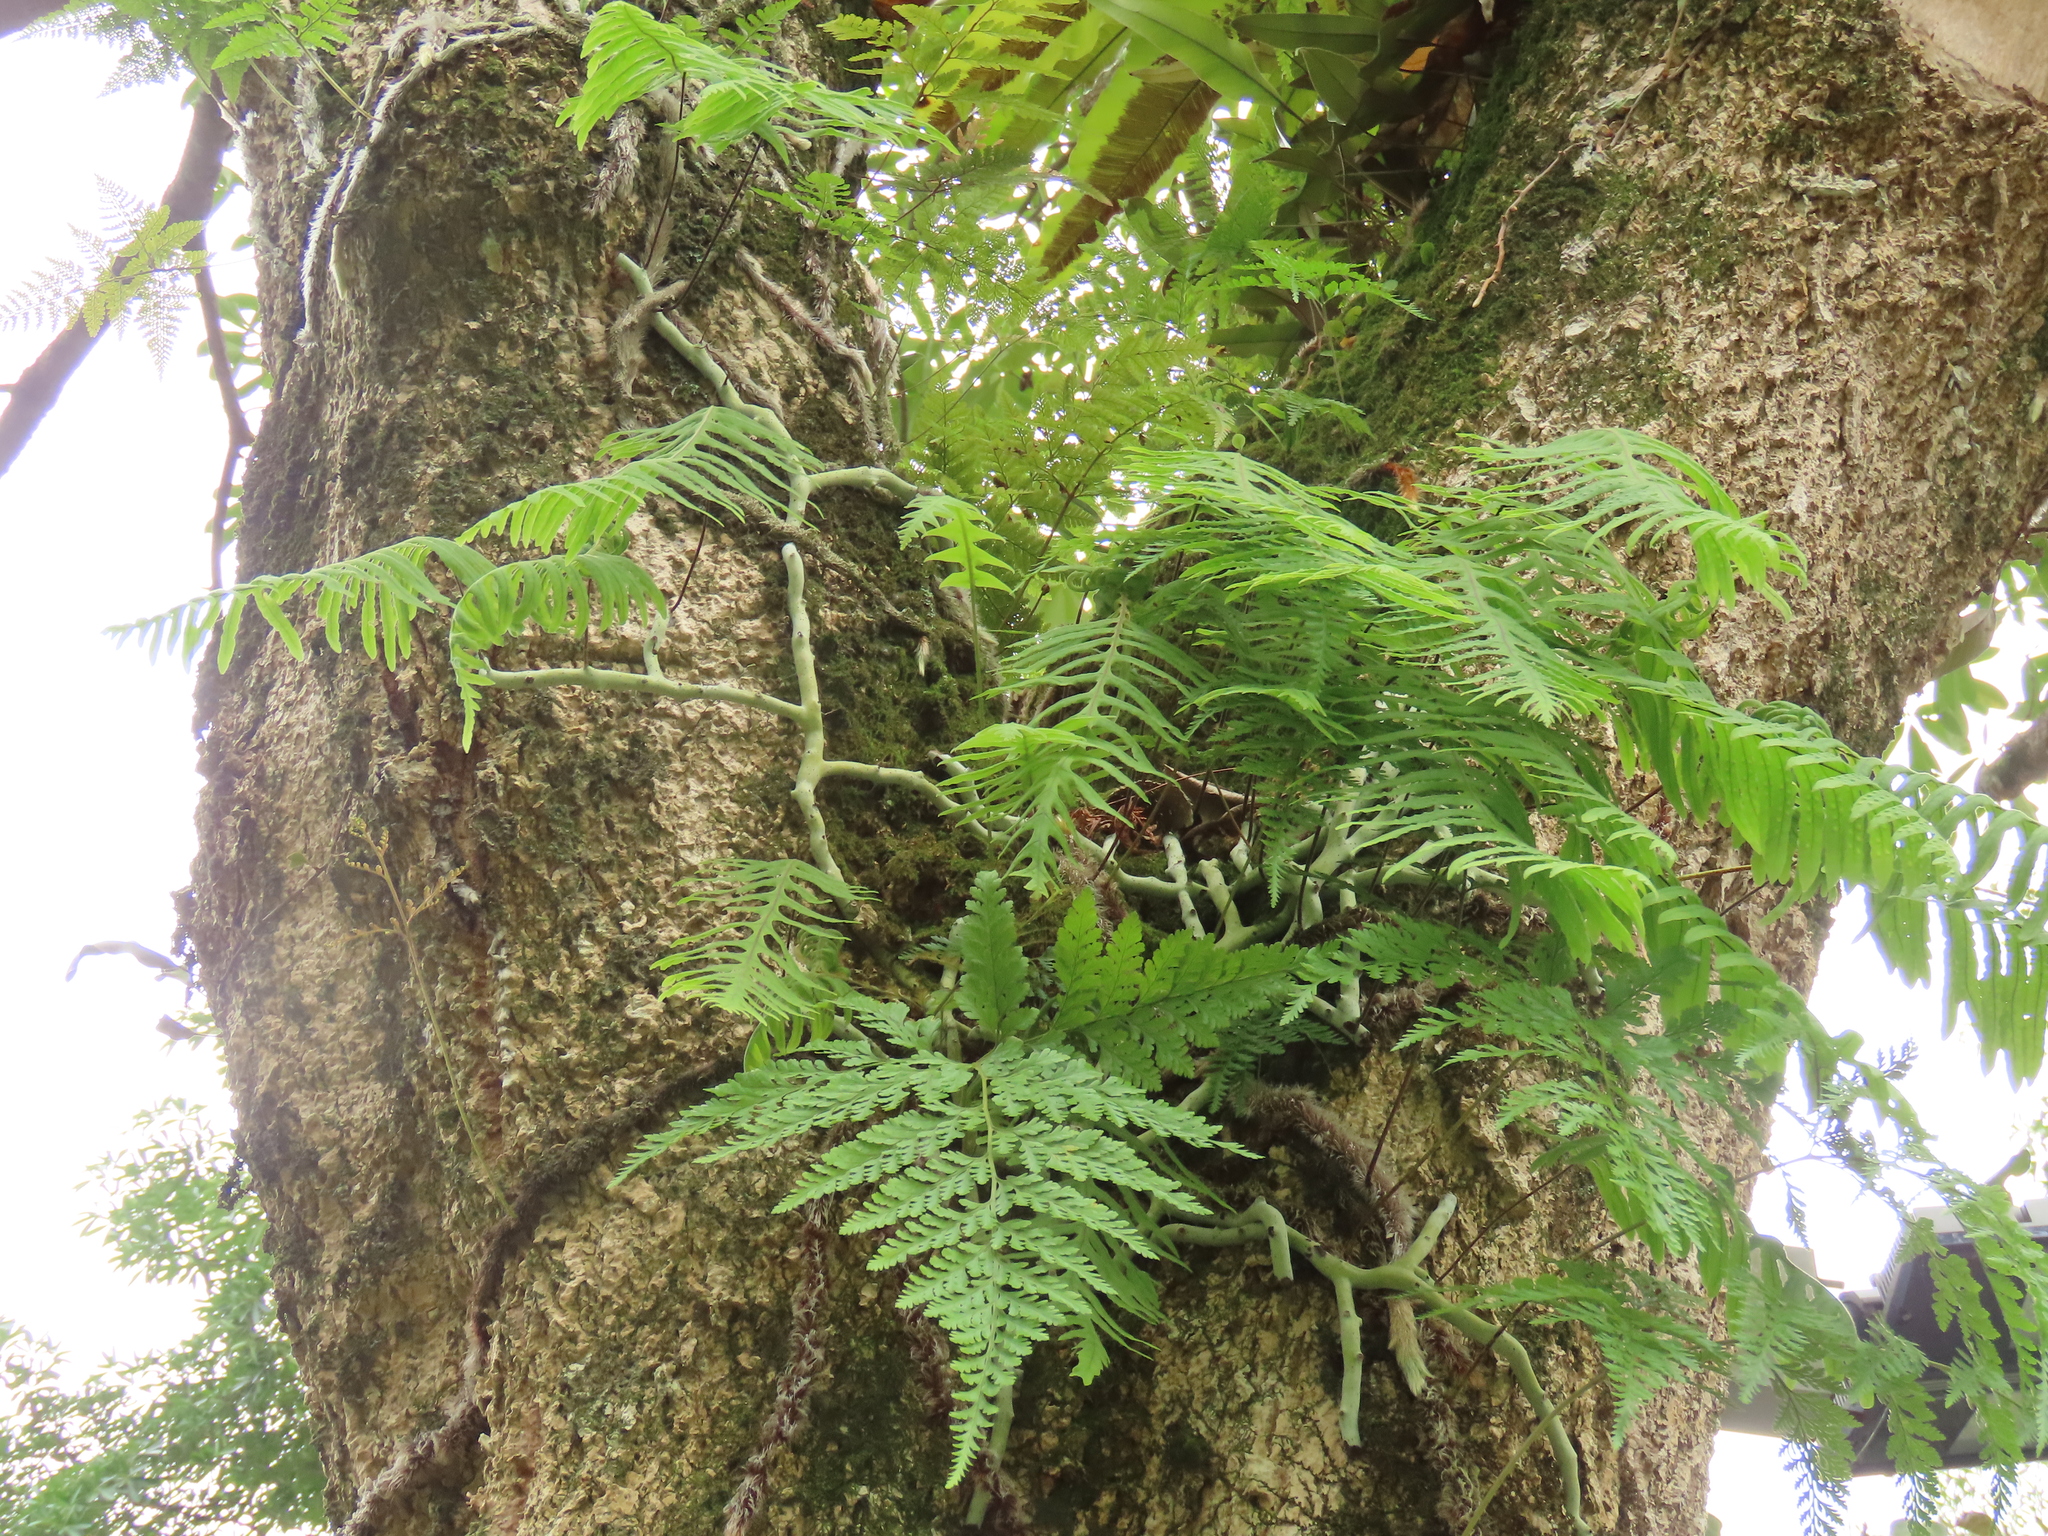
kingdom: Plantae
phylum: Tracheophyta
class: Polypodiopsida
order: Polypodiales
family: Polypodiaceae
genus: Goniophlebium
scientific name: Goniophlebium formosanum
